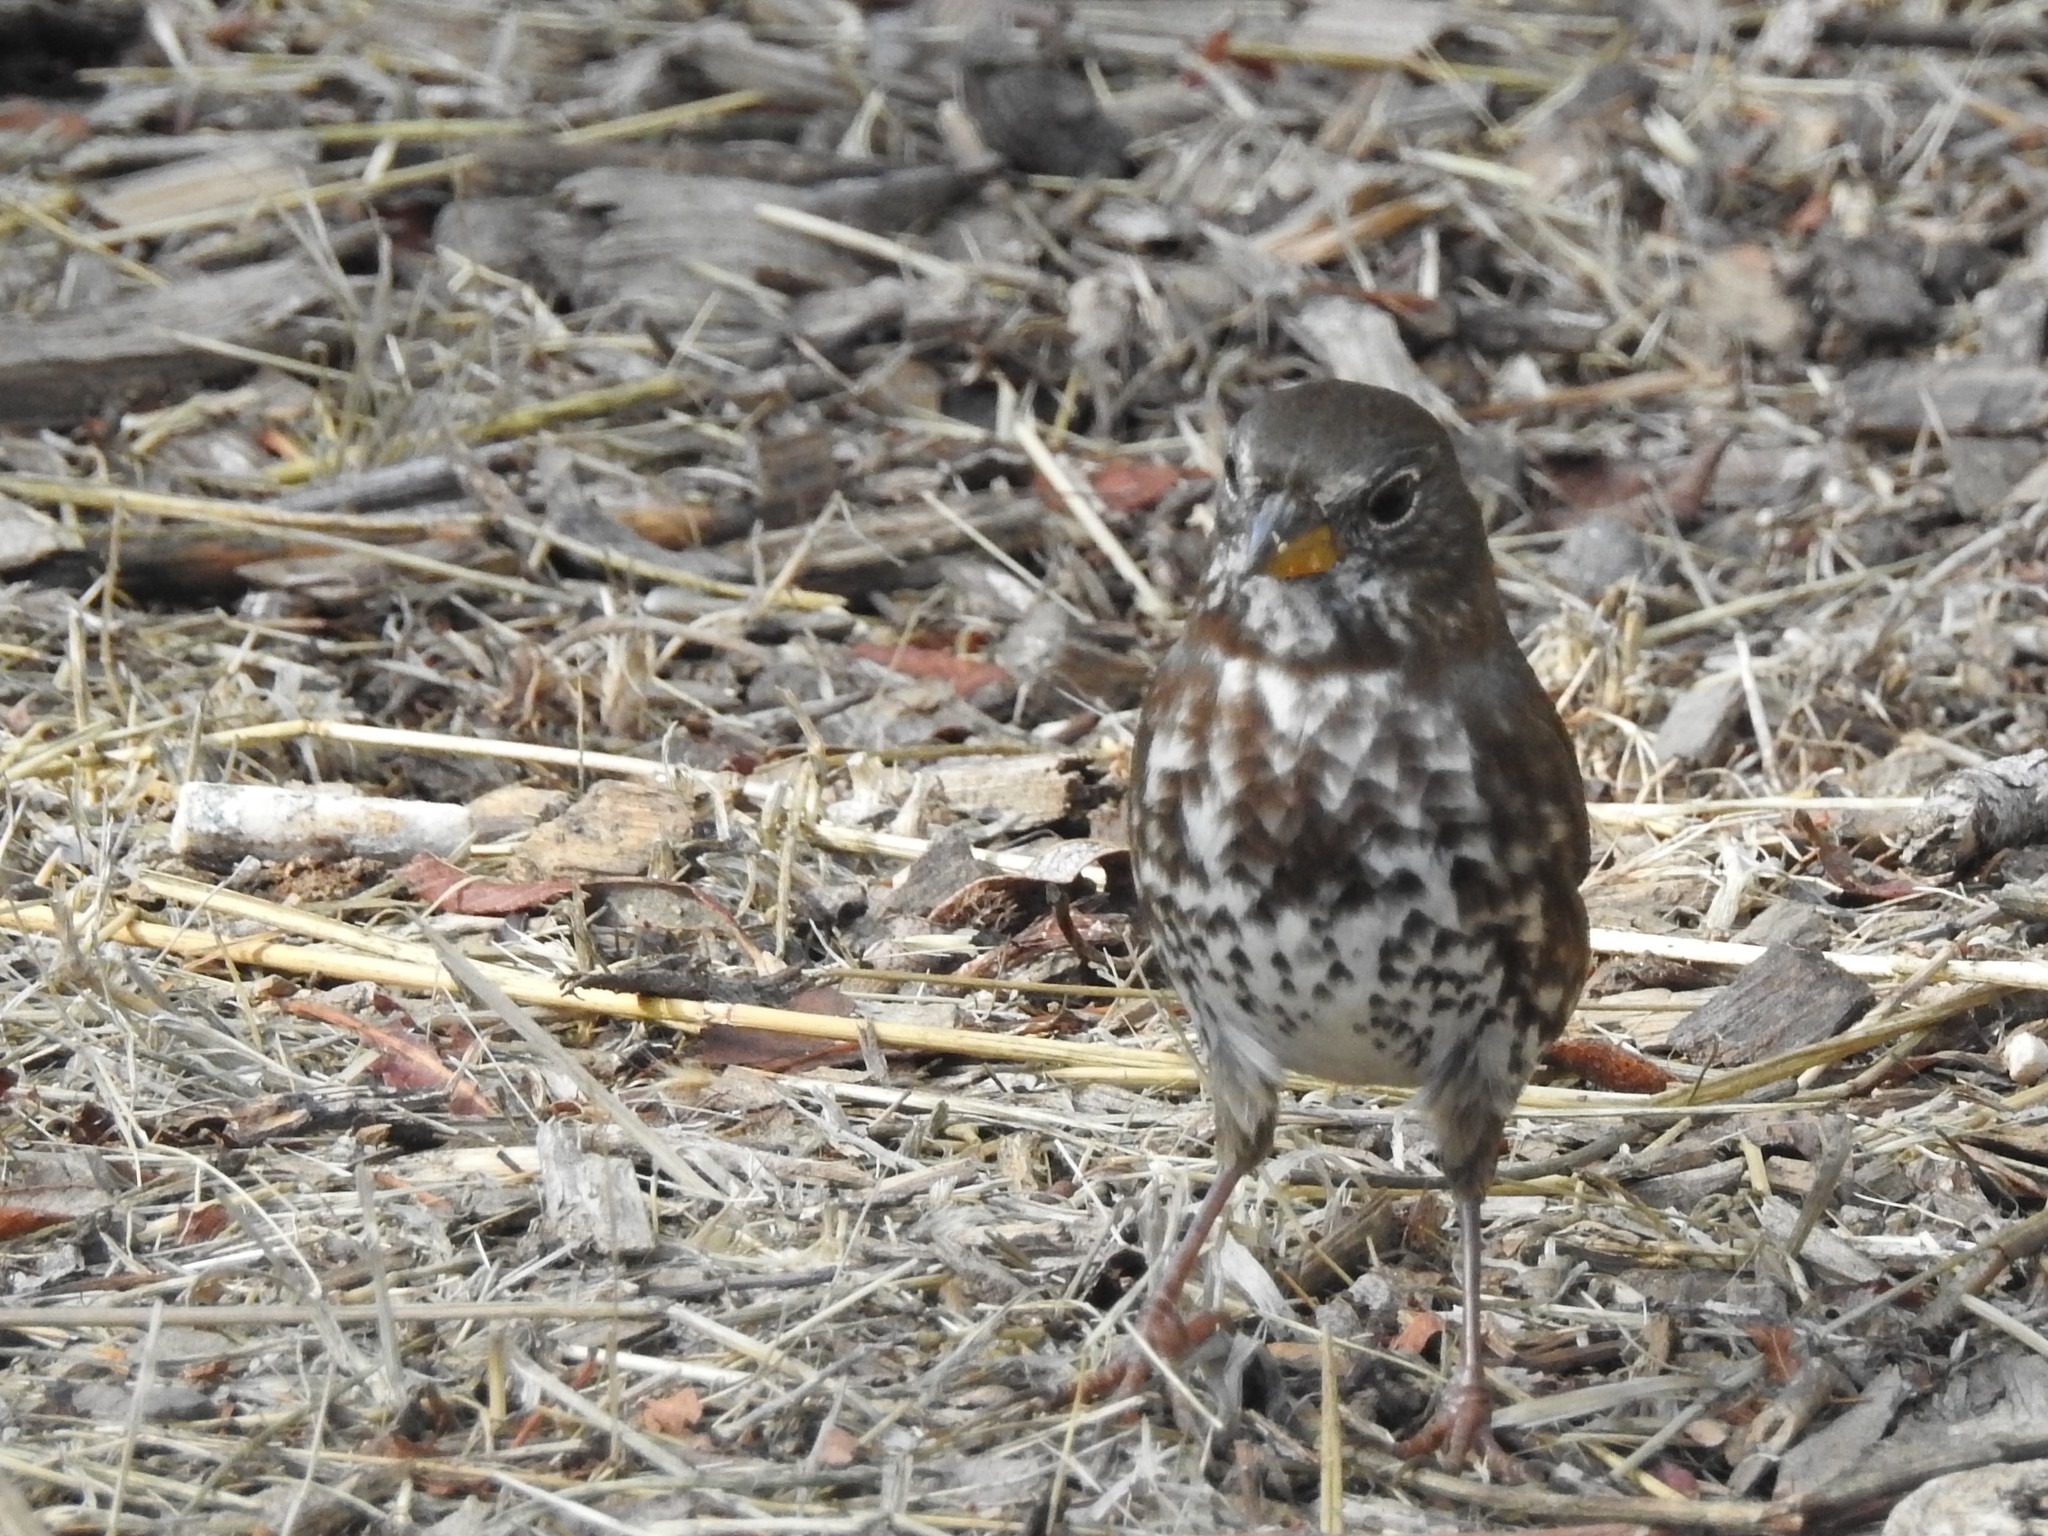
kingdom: Animalia
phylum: Chordata
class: Aves
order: Passeriformes
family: Passerellidae
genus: Passerella
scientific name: Passerella iliaca
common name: Fox sparrow
